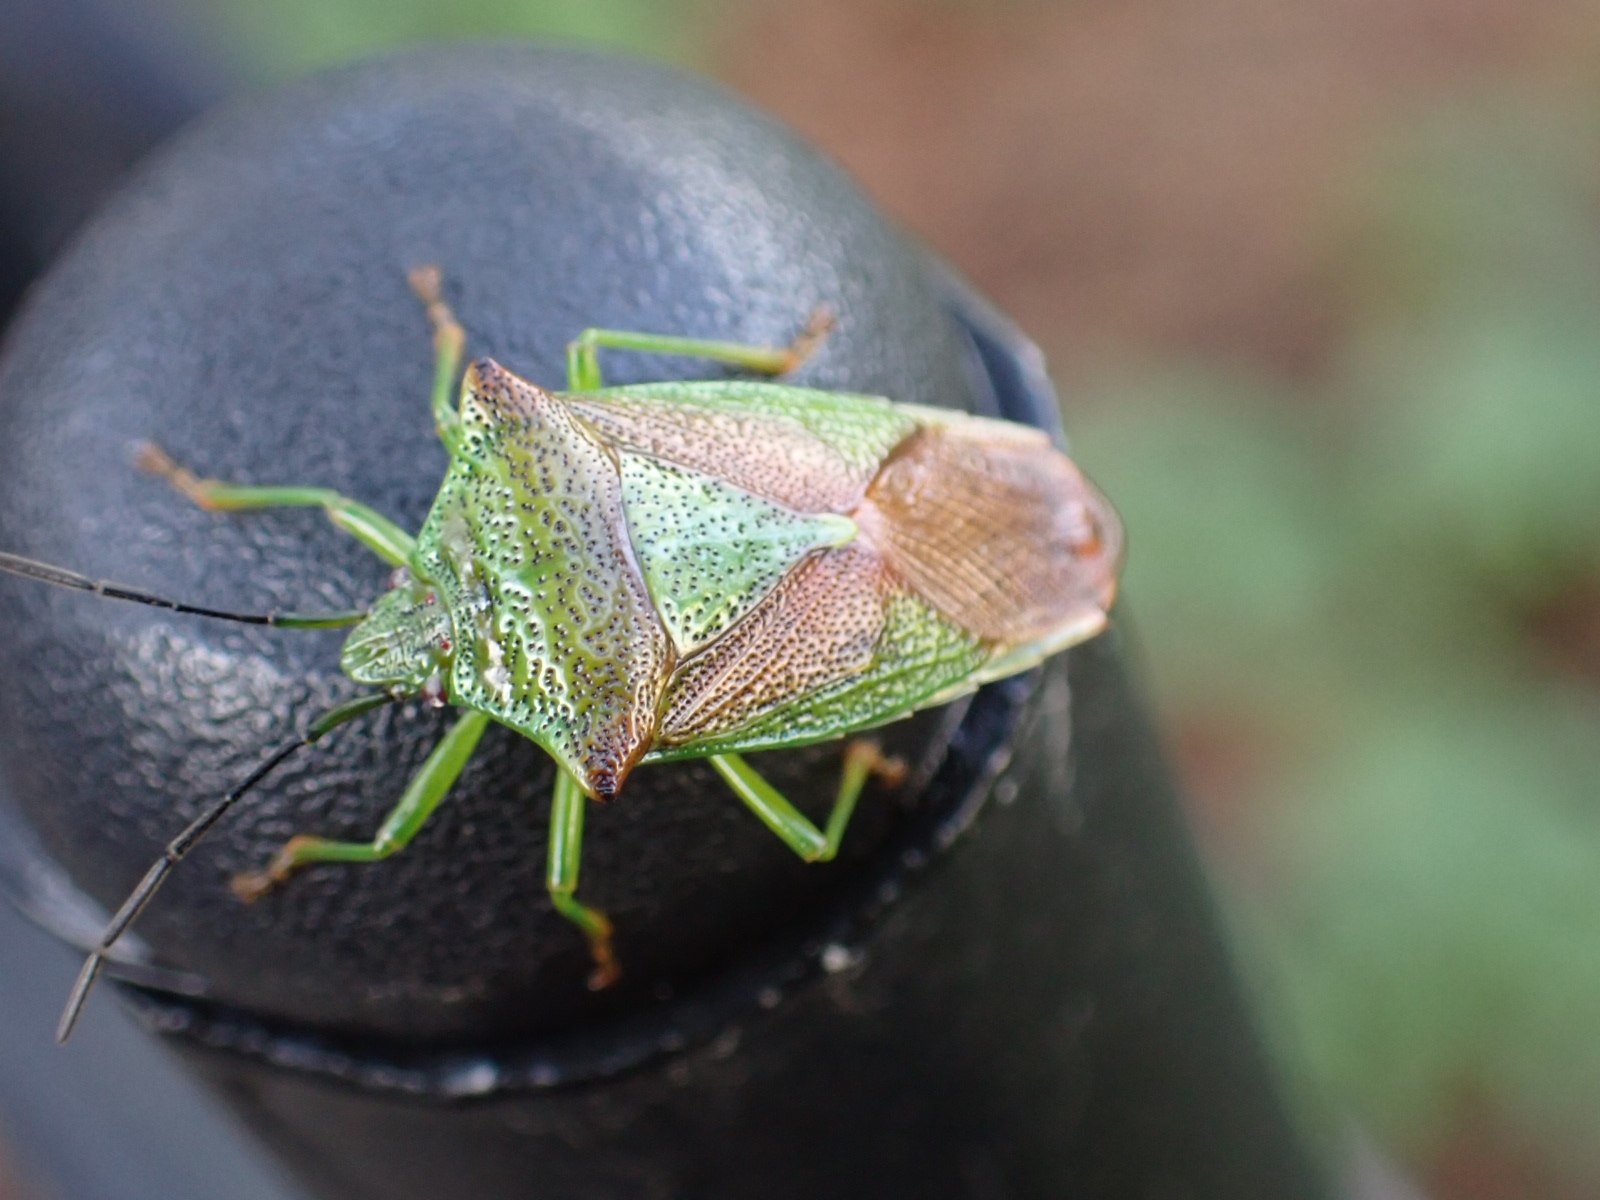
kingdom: Animalia
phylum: Arthropoda
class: Insecta
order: Hemiptera
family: Acanthosomatidae
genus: Acanthosoma
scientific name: Acanthosoma haemorrhoidale
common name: Hawthorn shieldbug
